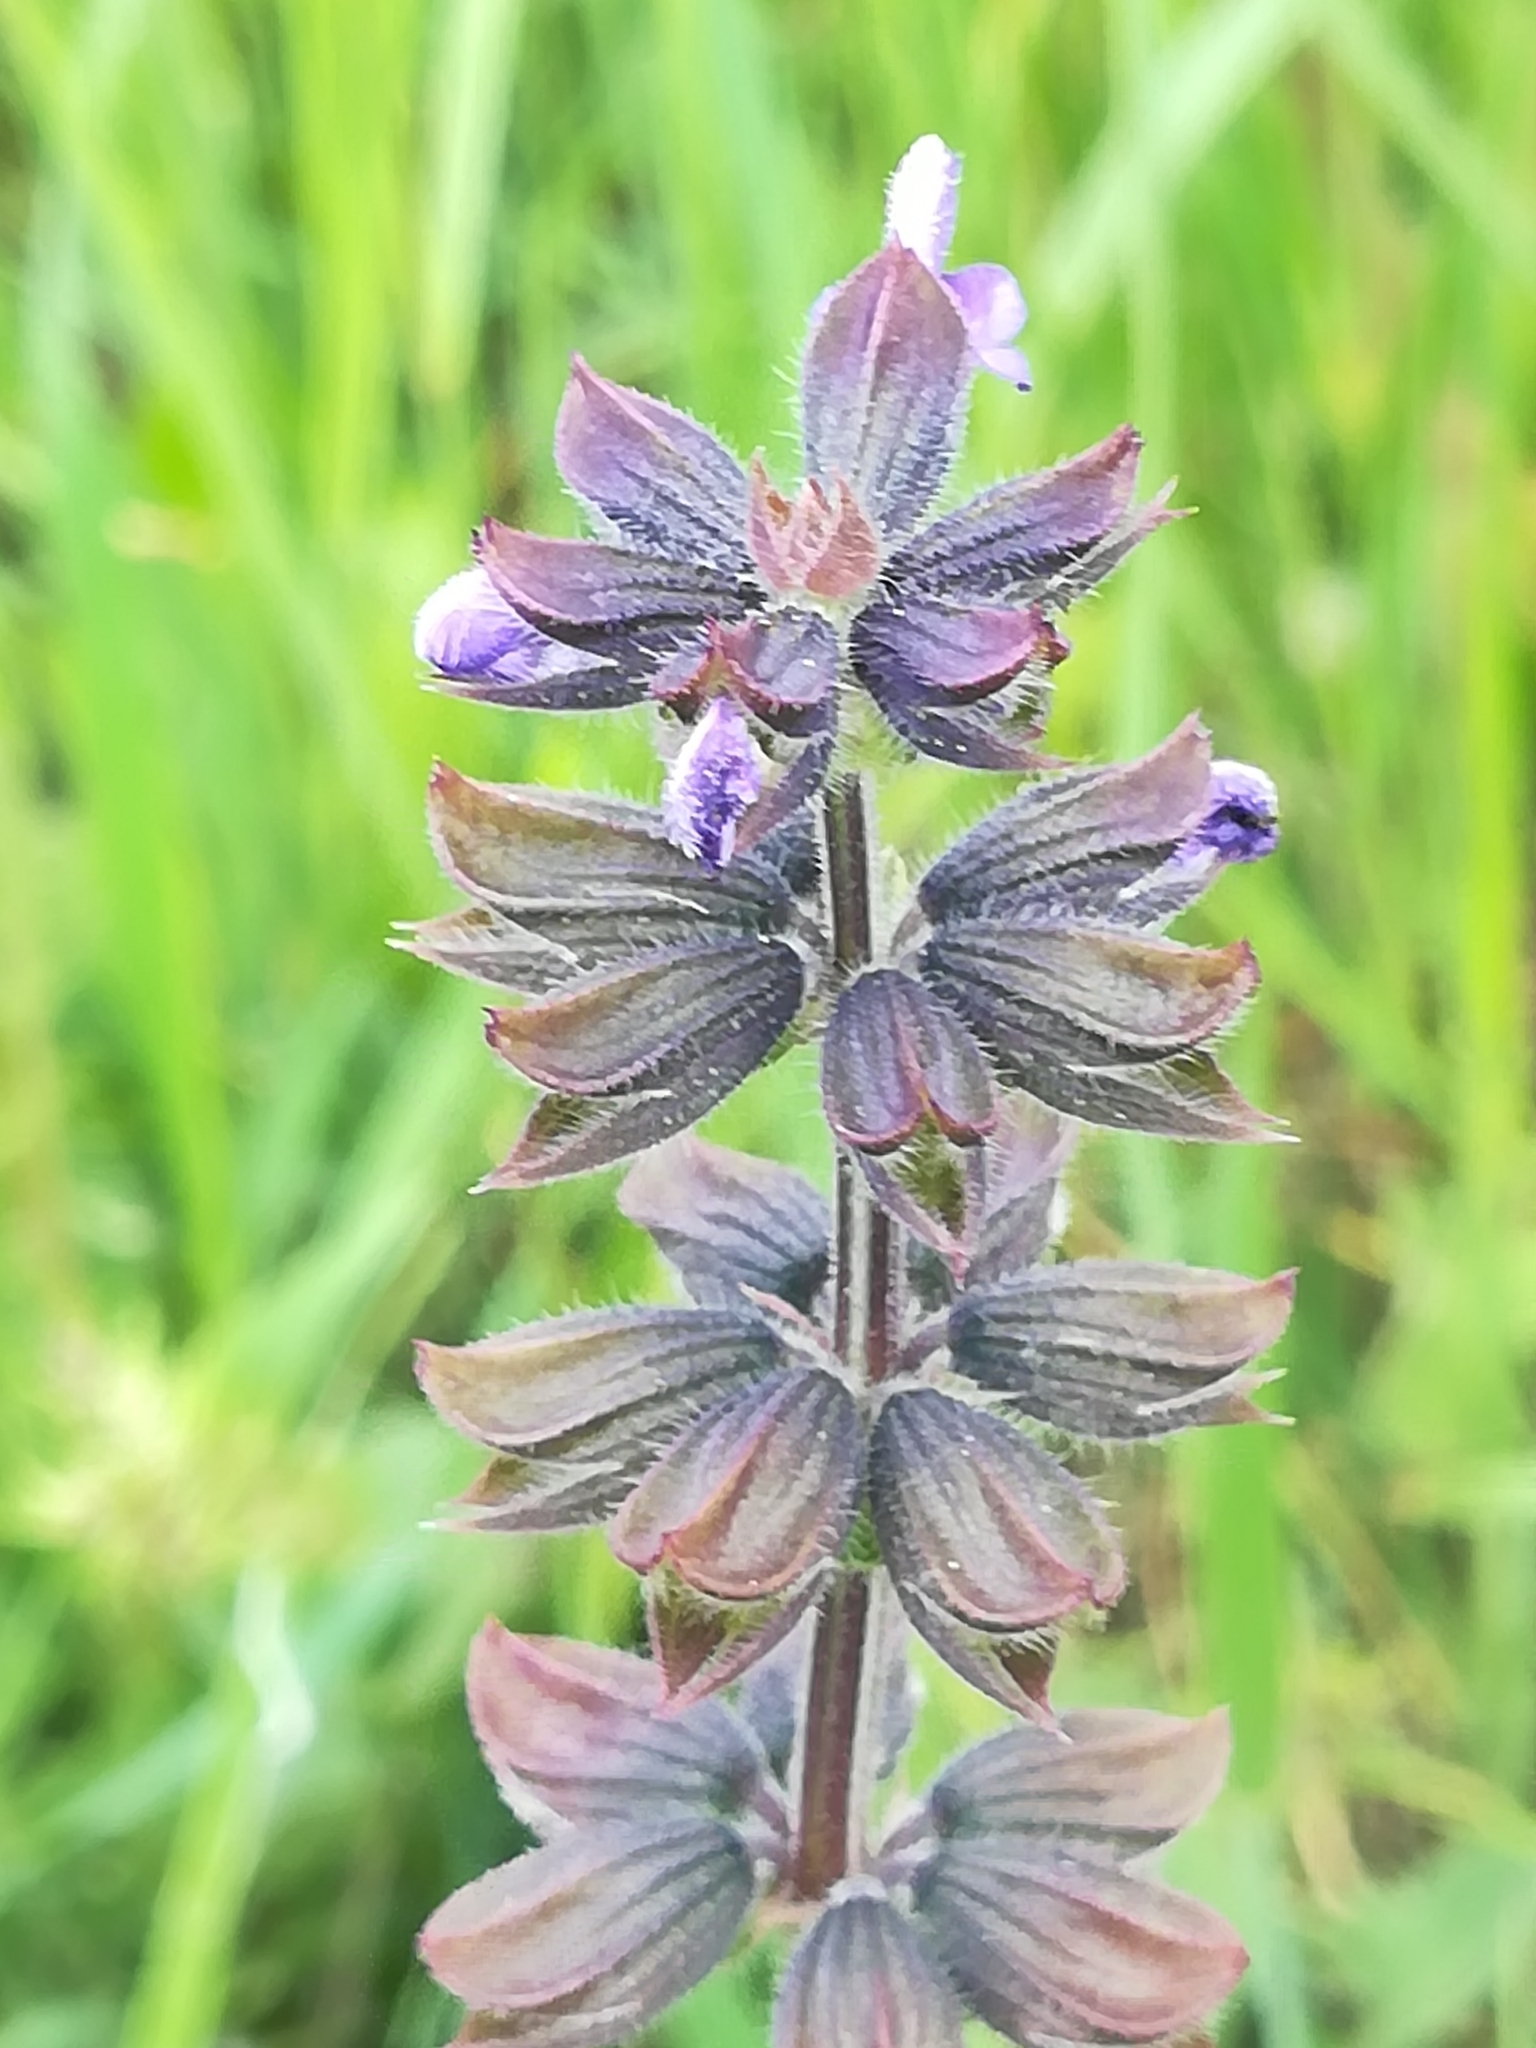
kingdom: Plantae
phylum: Tracheophyta
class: Magnoliopsida
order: Lamiales
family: Lamiaceae
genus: Salvia
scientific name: Salvia verbenaca
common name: Wild clary
